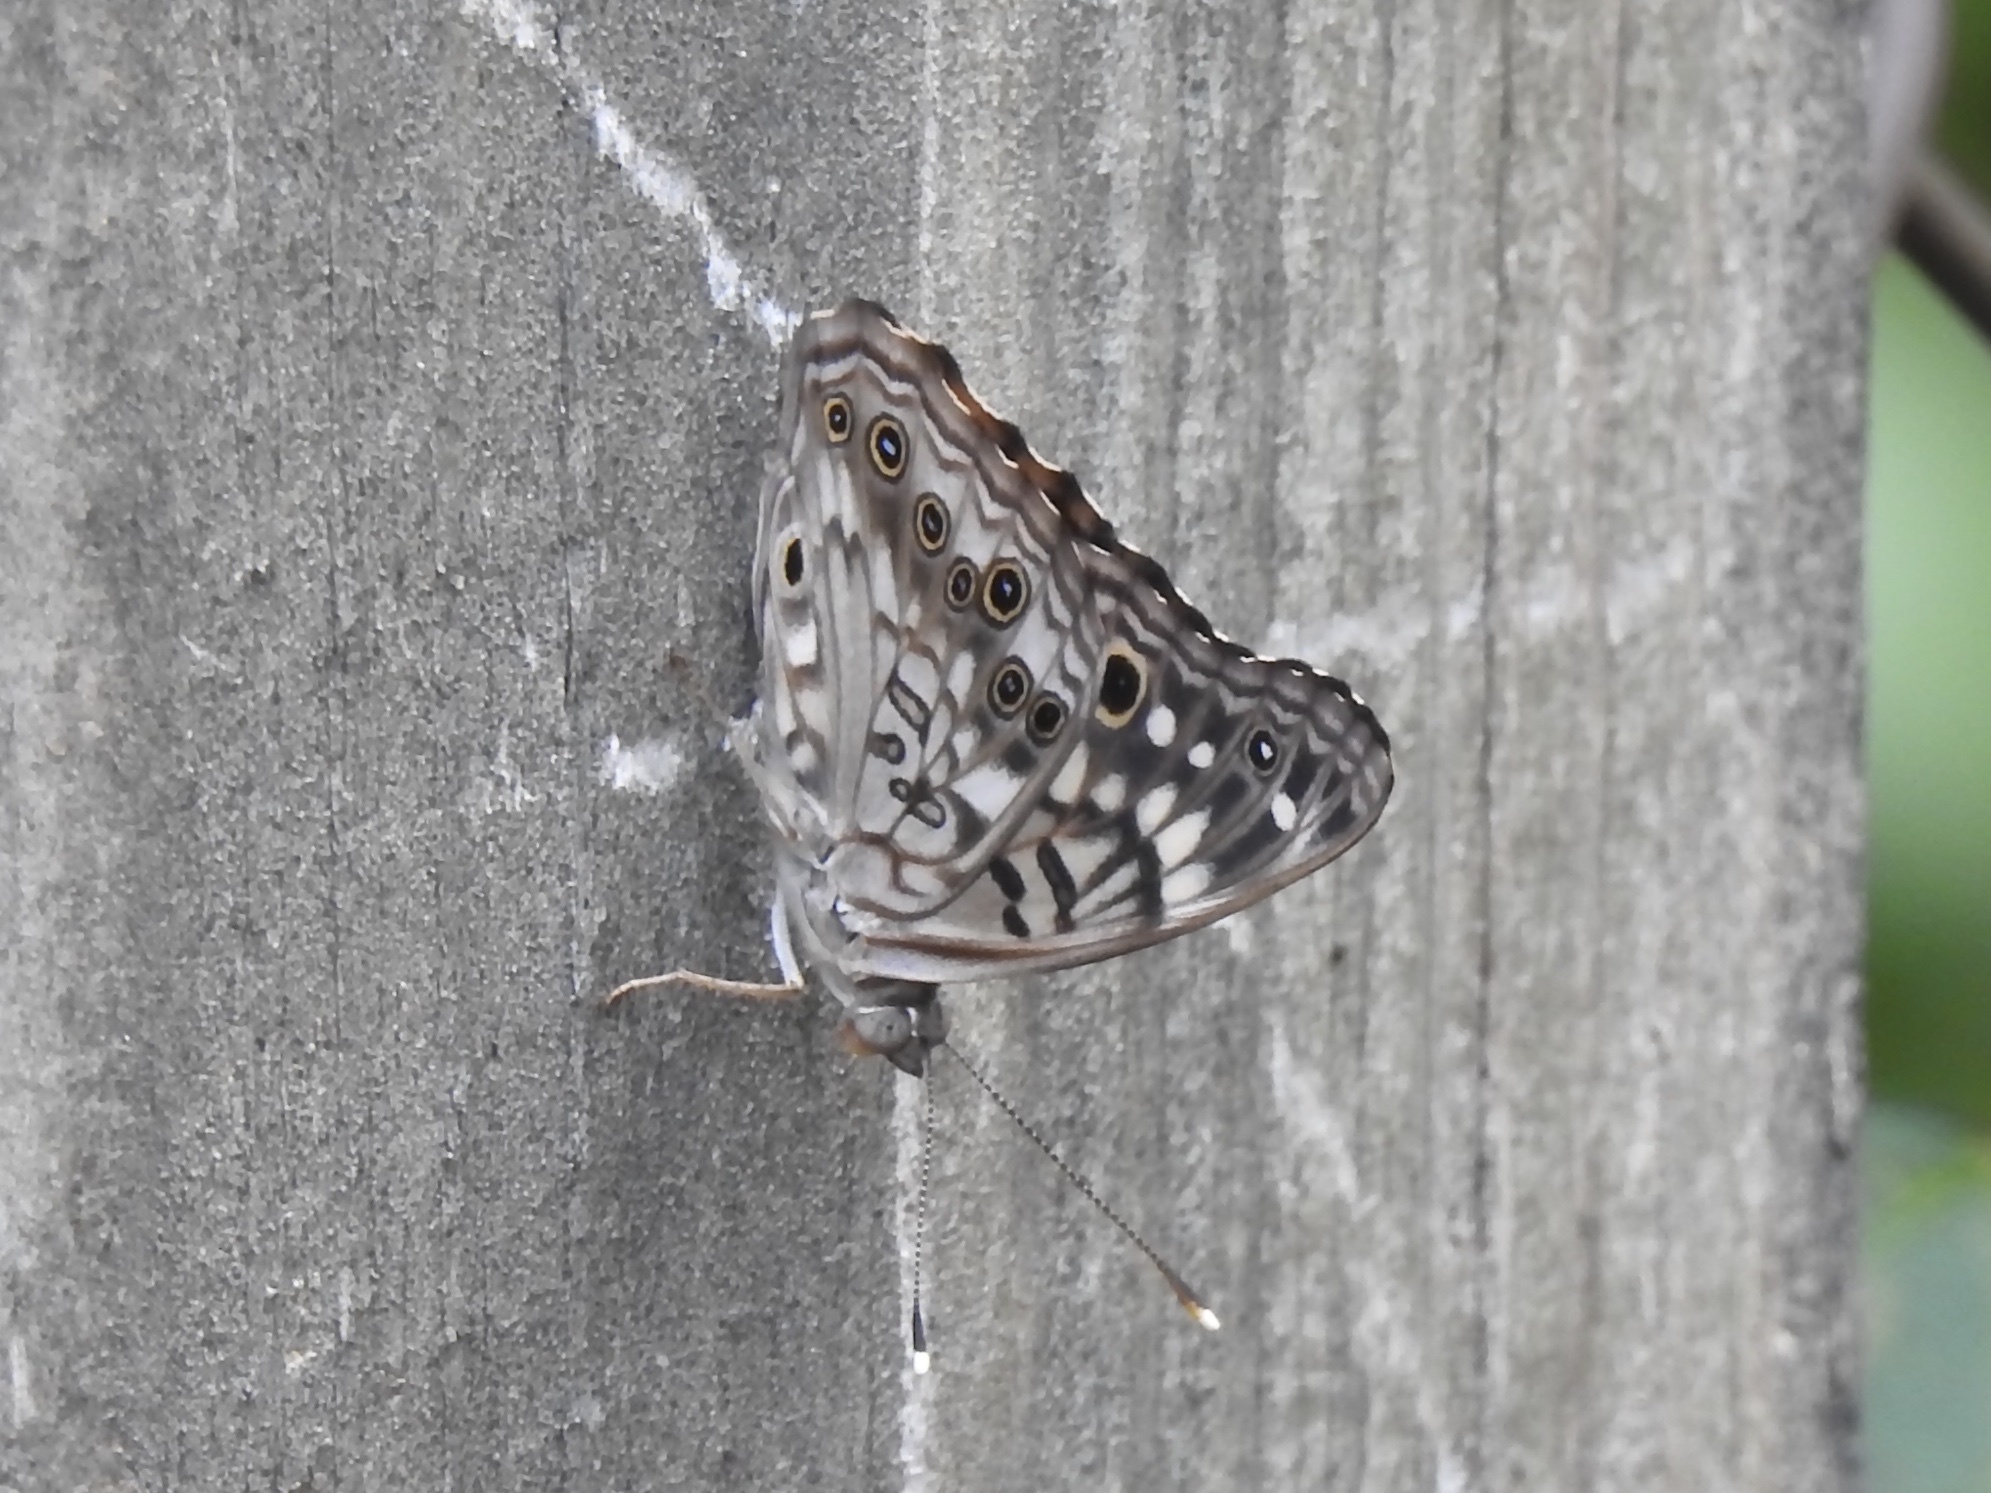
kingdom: Animalia
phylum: Arthropoda
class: Insecta
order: Lepidoptera
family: Nymphalidae
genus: Asterocampa
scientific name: Asterocampa celtis
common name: Hackberry emperor
